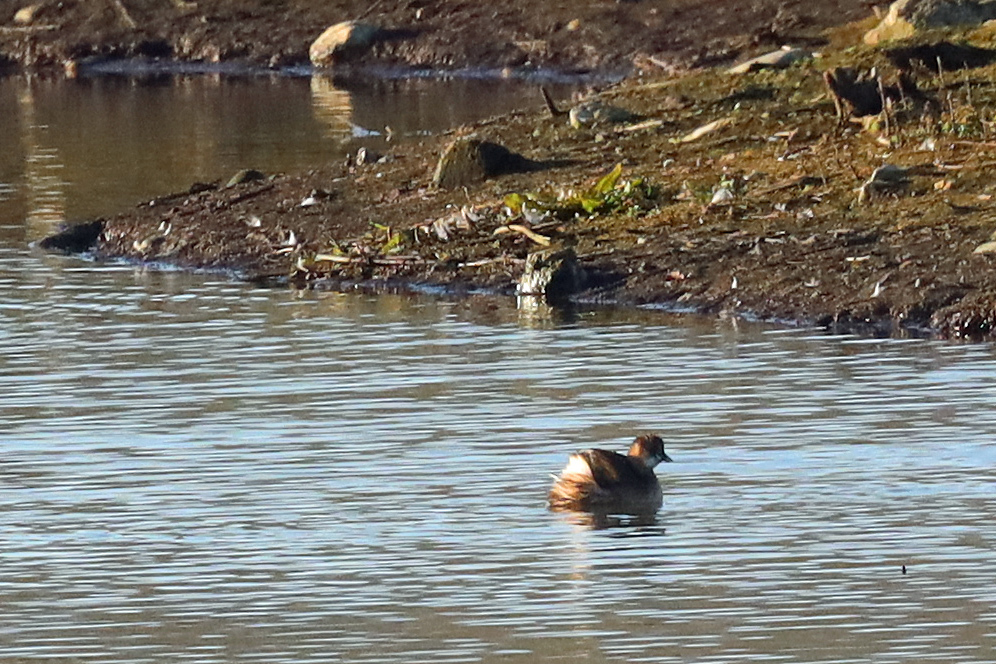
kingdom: Animalia
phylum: Chordata
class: Aves
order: Podicipediformes
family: Podicipedidae
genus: Tachybaptus
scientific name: Tachybaptus ruficollis
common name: Little grebe
